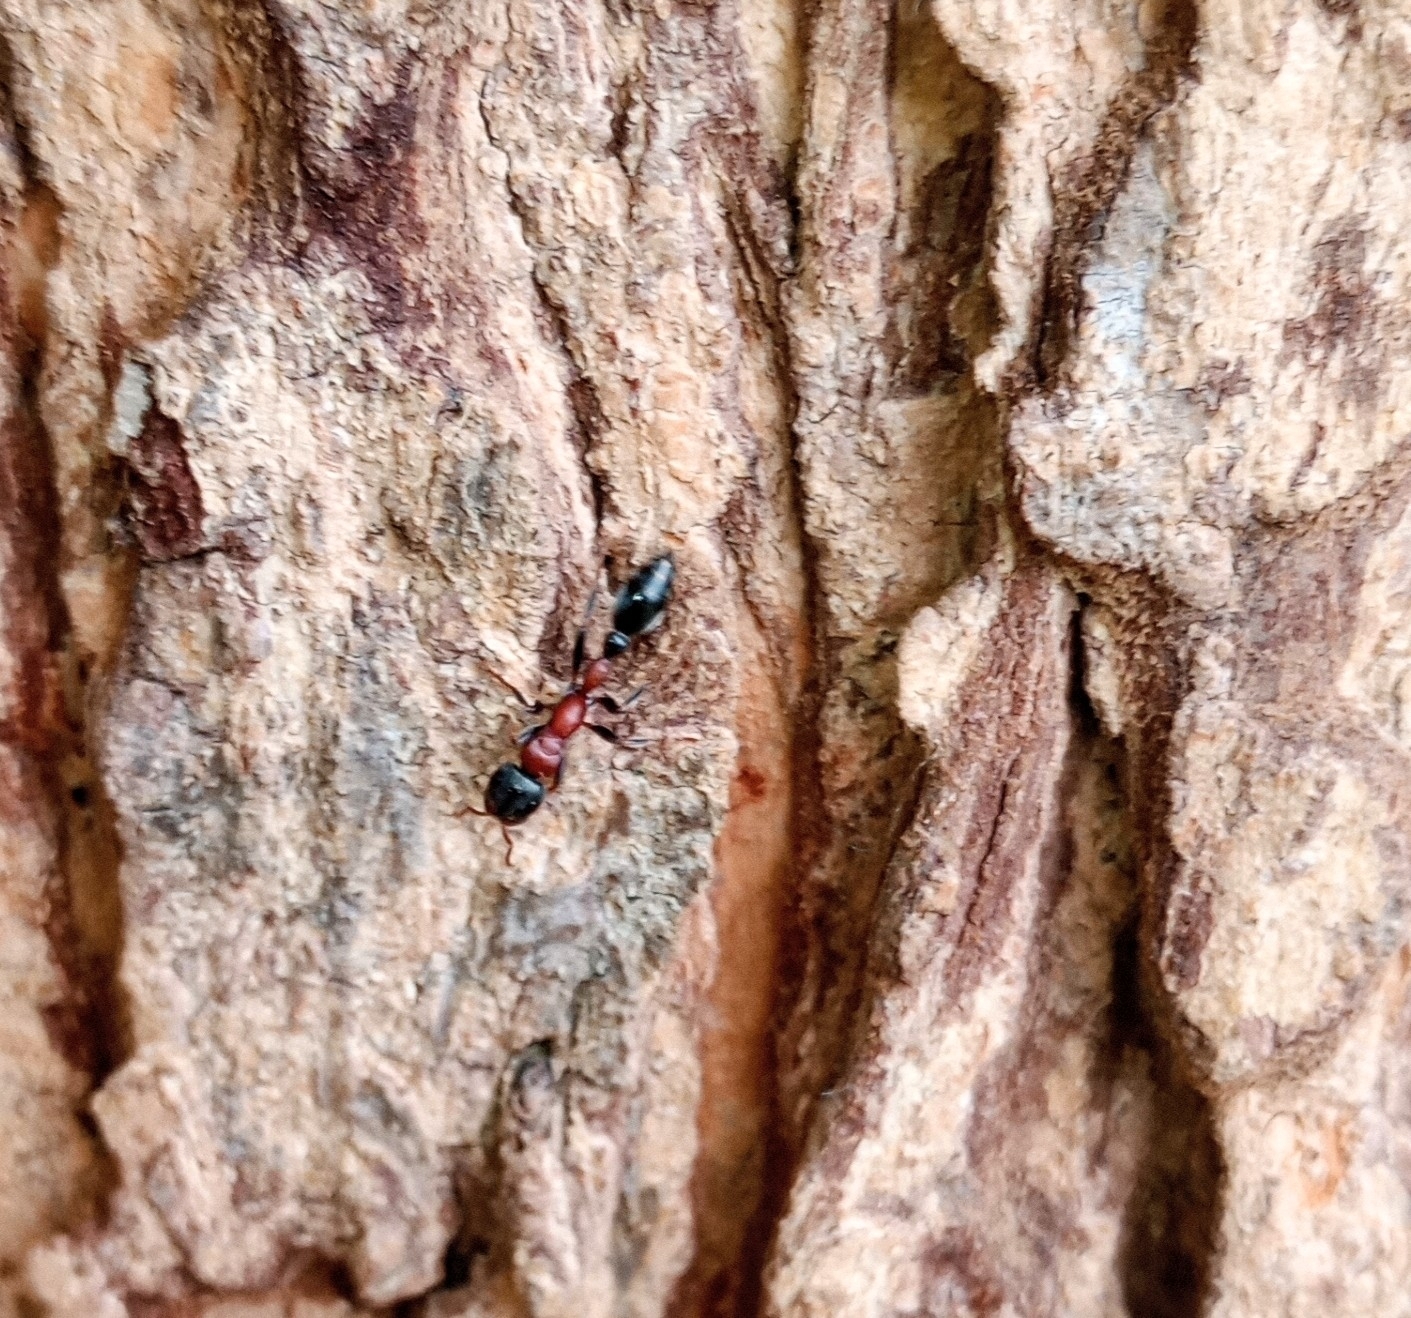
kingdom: Animalia
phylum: Arthropoda
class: Insecta
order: Hymenoptera
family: Formicidae
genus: Tetraponera
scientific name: Tetraponera rufonigra
